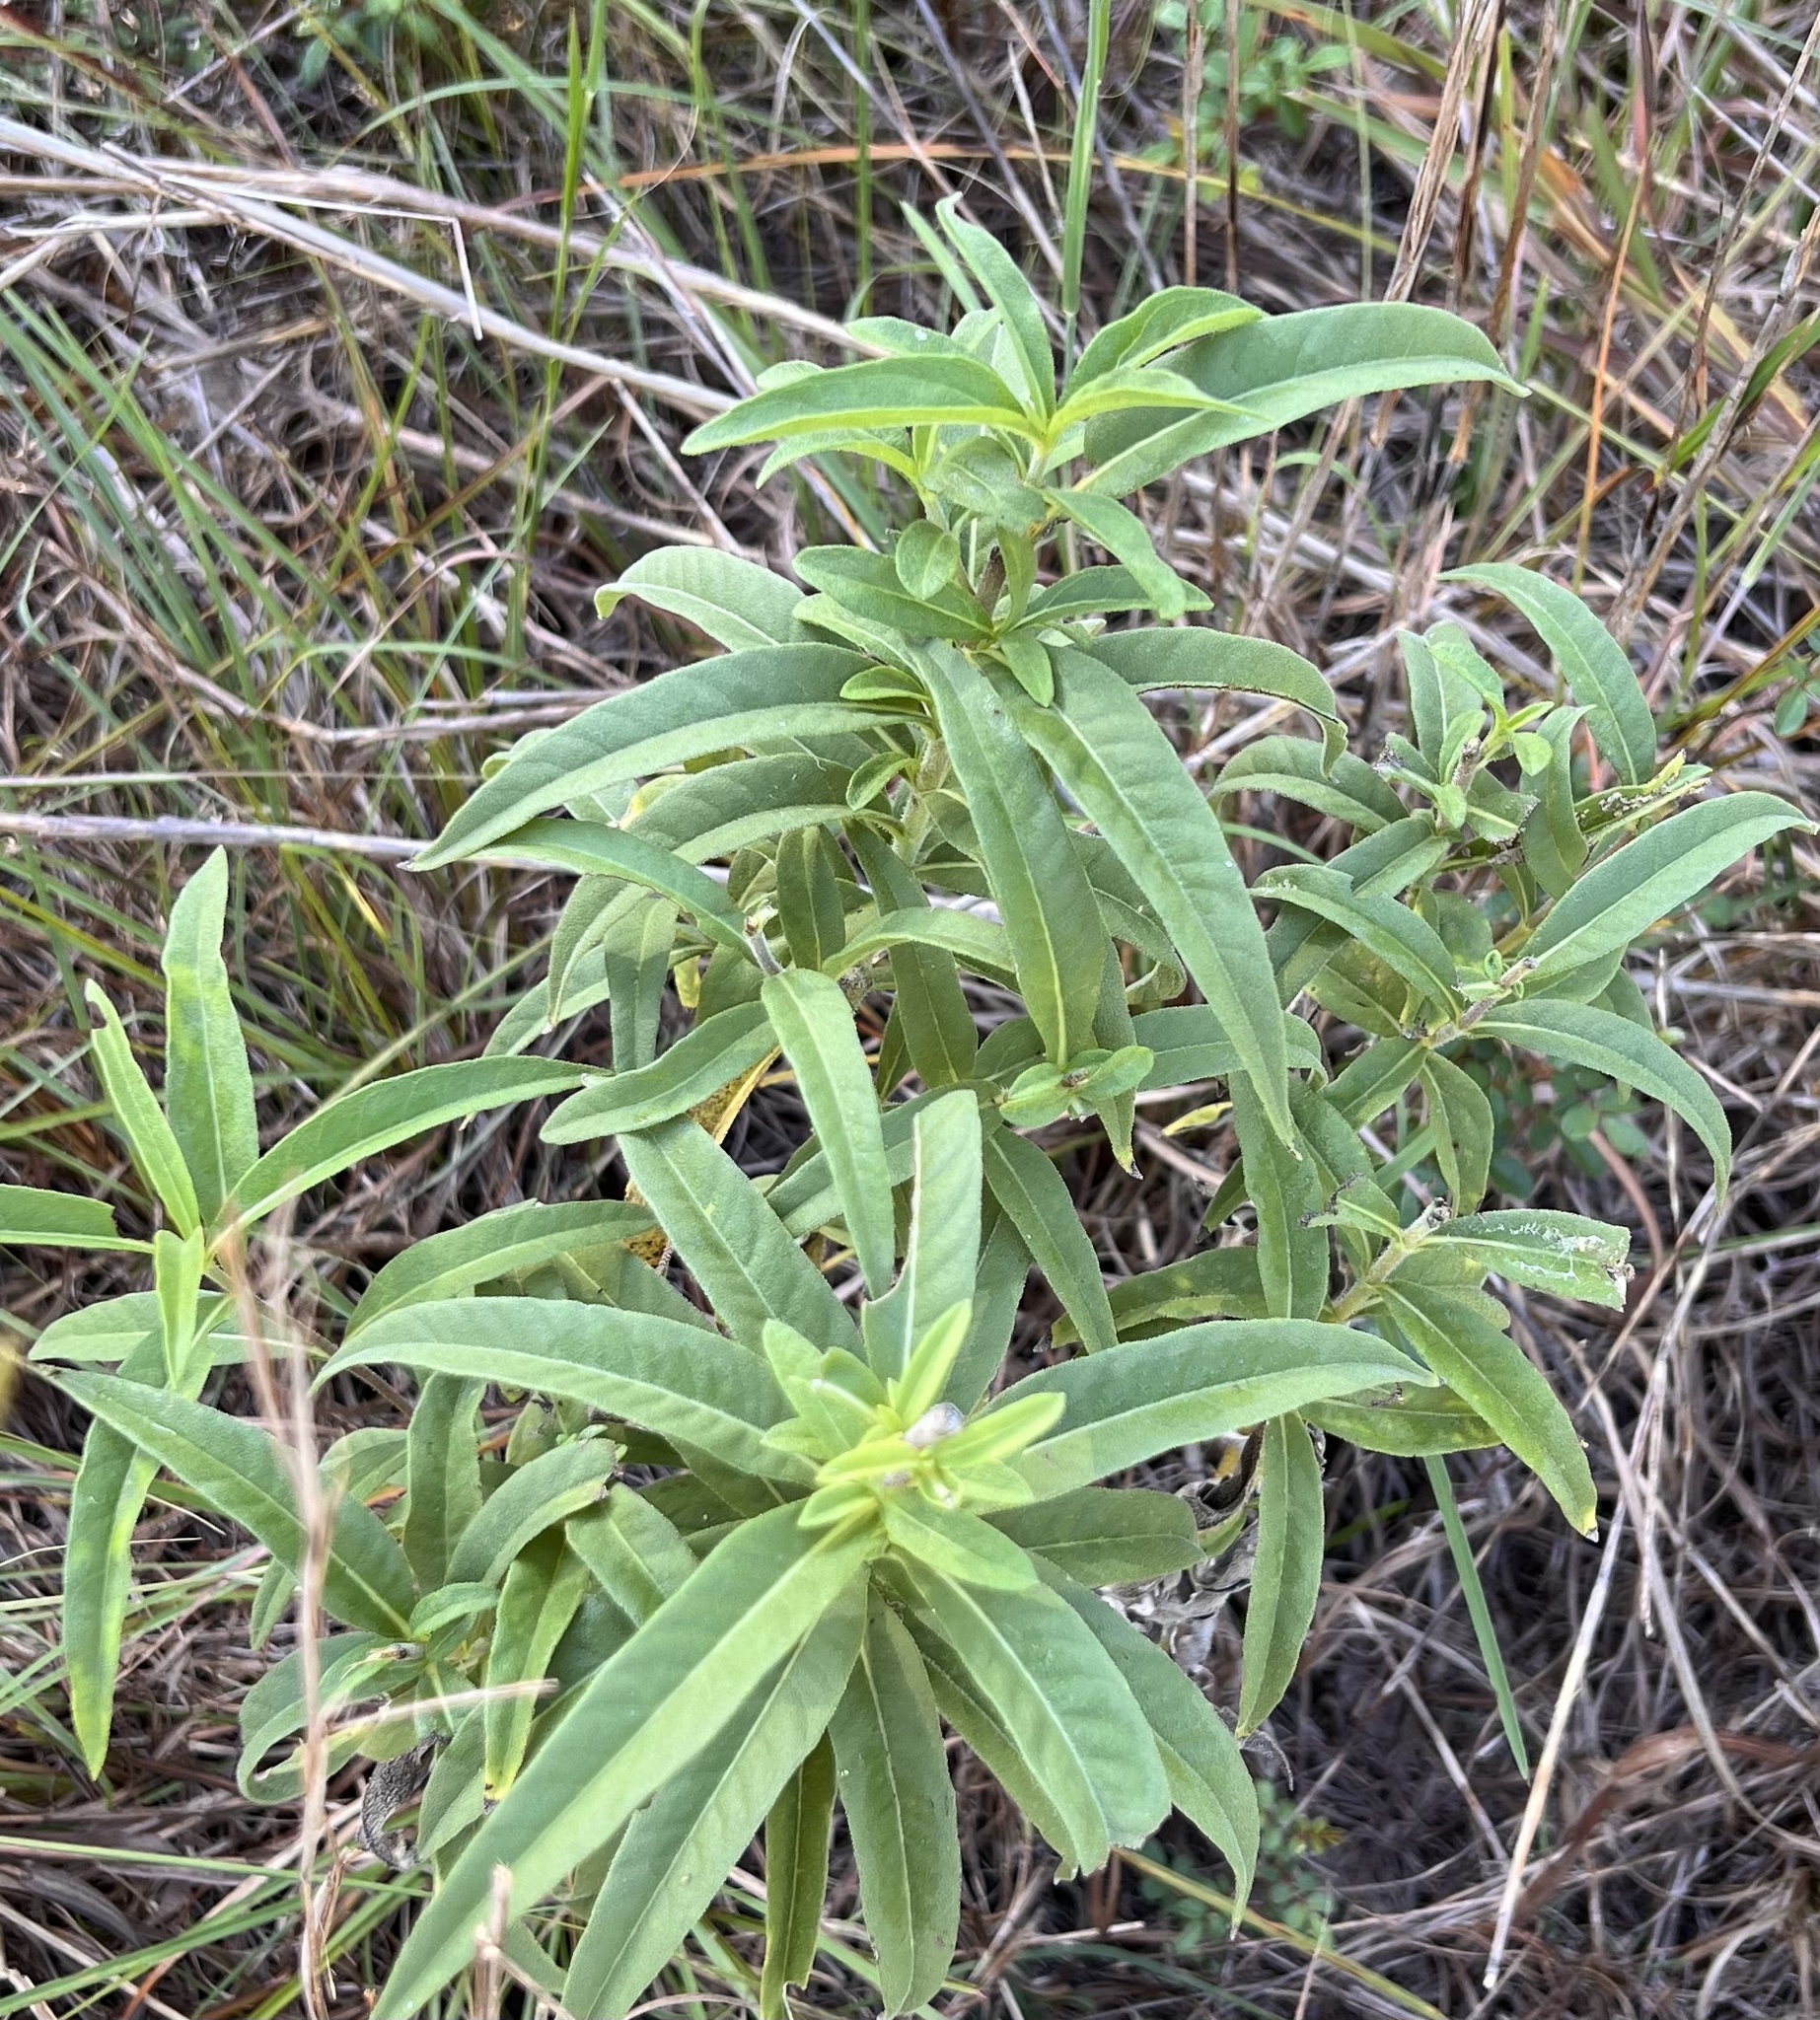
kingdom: Plantae
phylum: Tracheophyta
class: Magnoliopsida
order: Asterales
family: Asteraceae
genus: Helianthus
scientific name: Helianthus maximiliani
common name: Maximilian's sunflower
